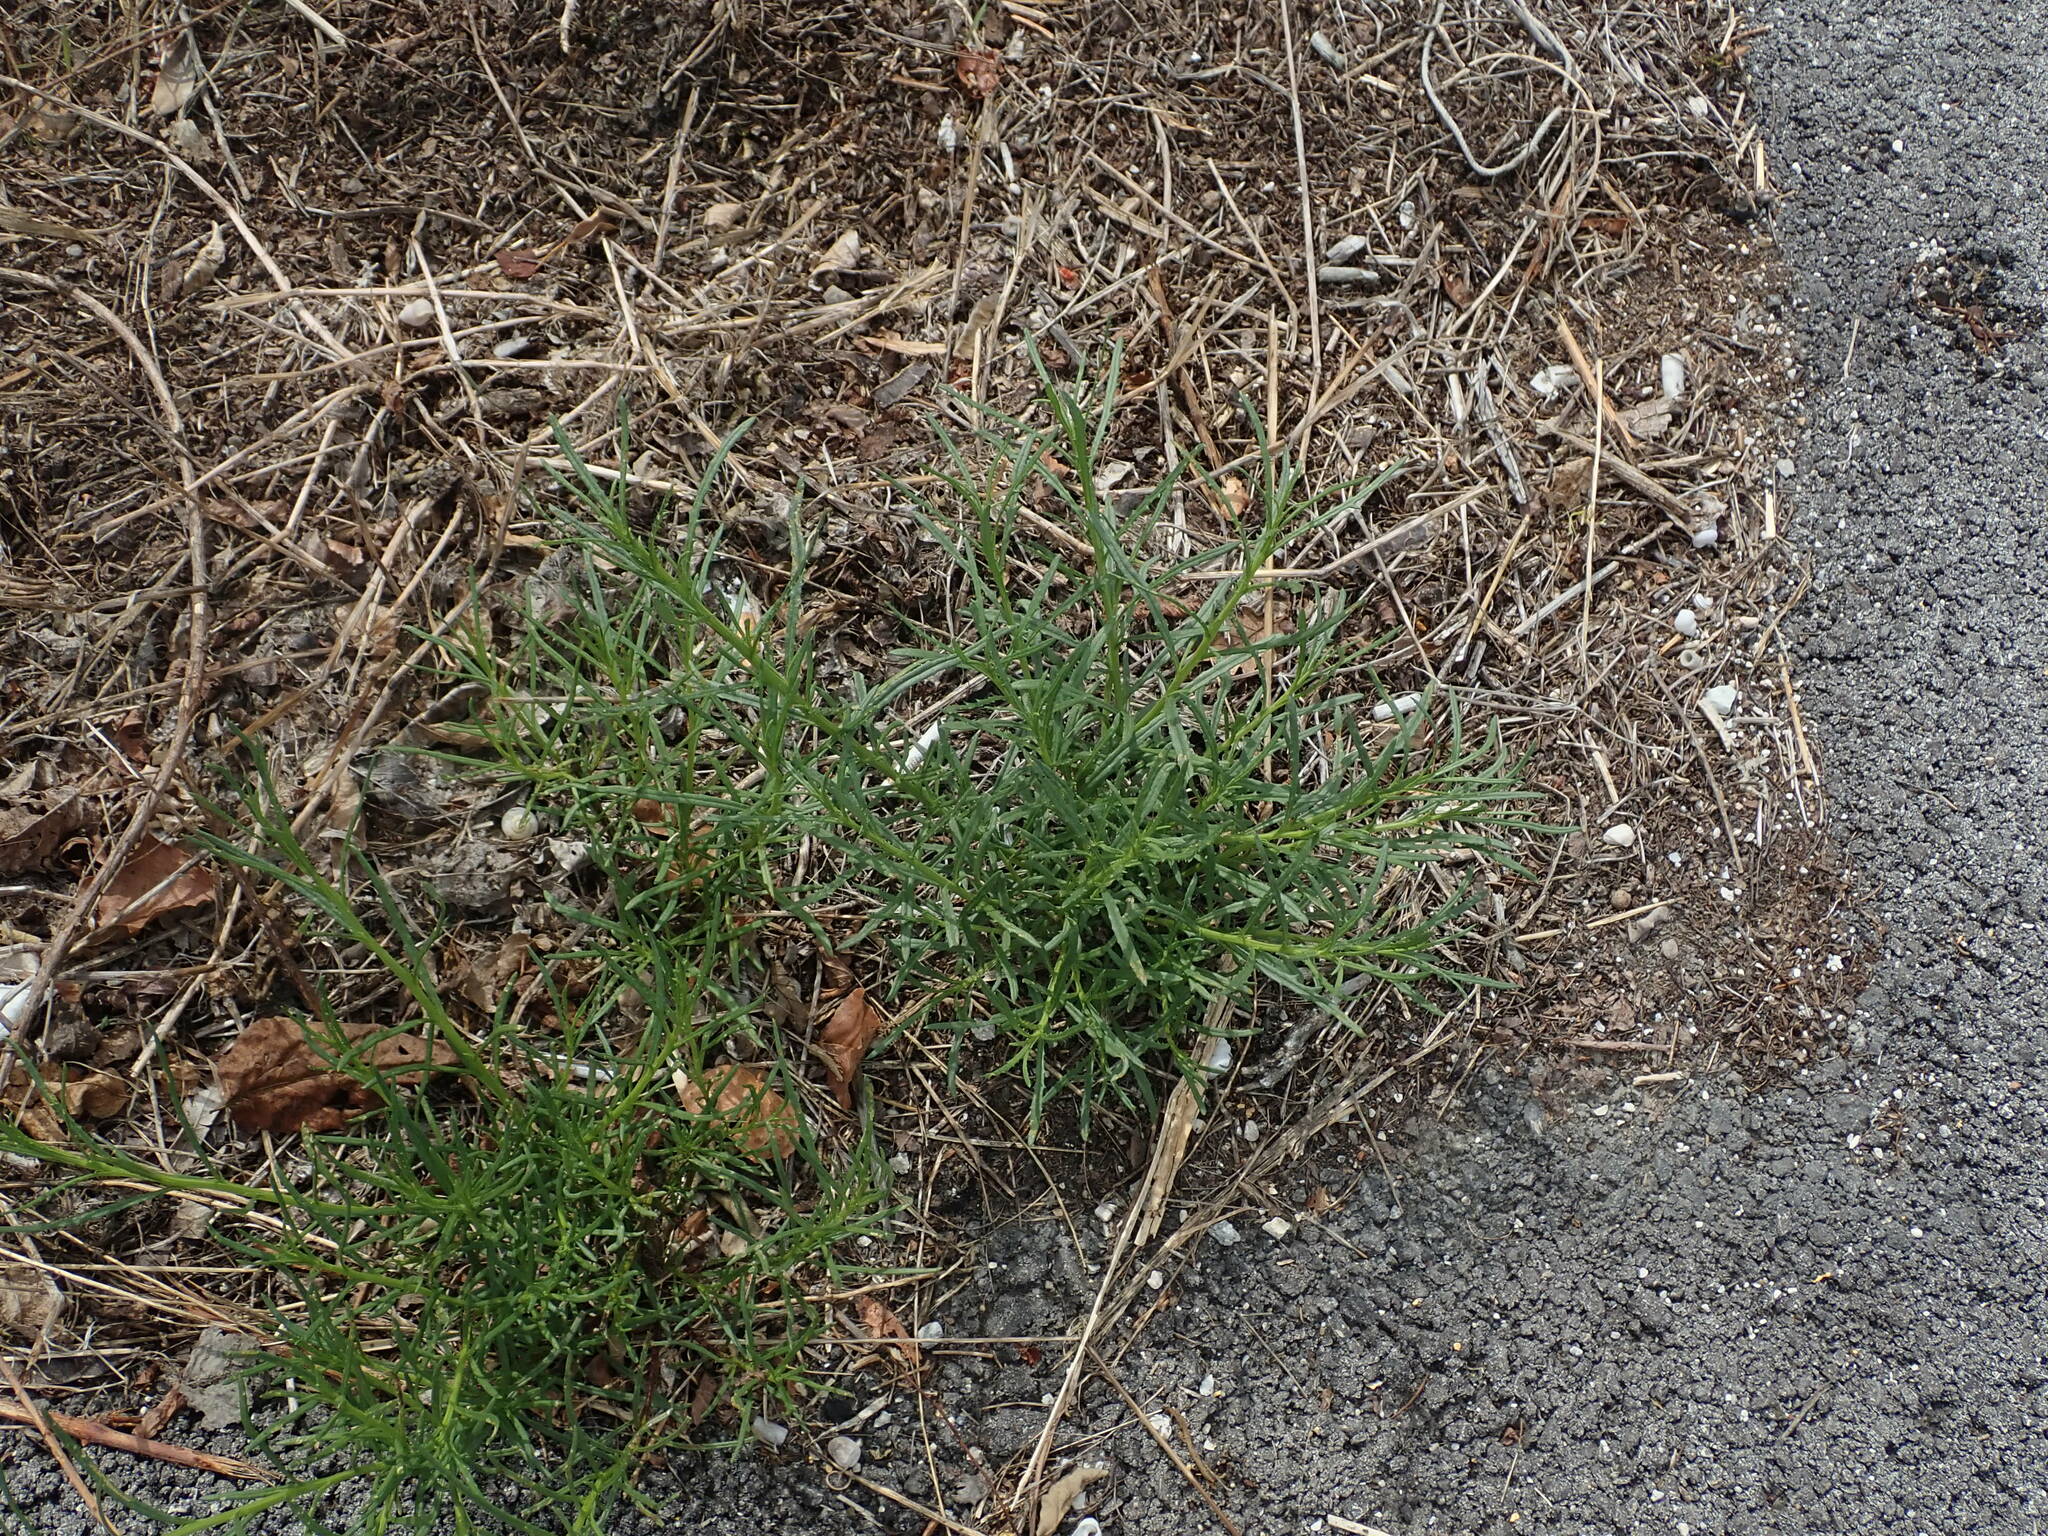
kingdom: Plantae
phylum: Tracheophyta
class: Magnoliopsida
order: Asterales
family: Asteraceae
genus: Senecio
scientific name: Senecio inaequidens
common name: Narrow-leaved ragwort
